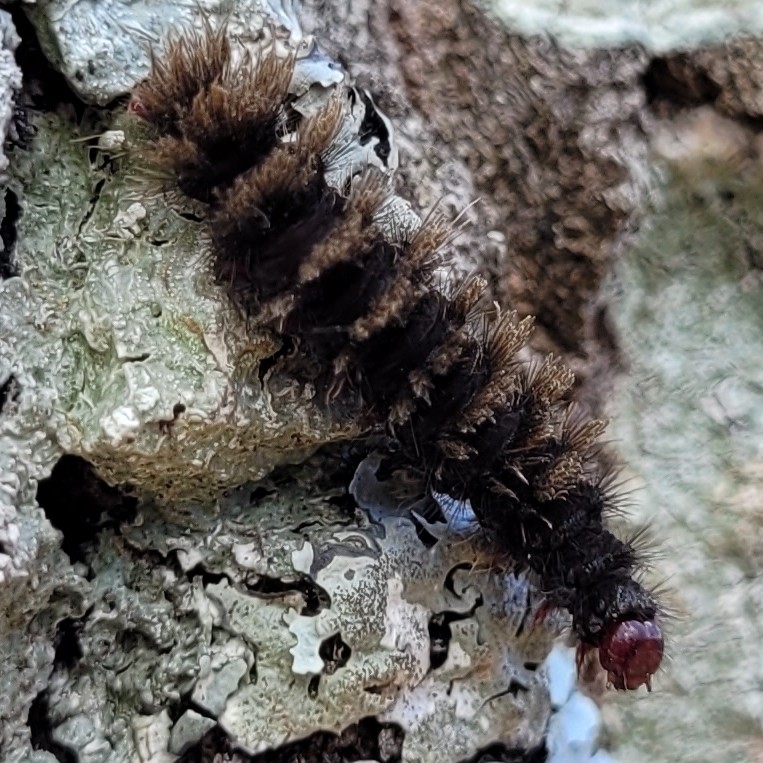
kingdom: Animalia
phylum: Arthropoda
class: Insecta
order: Lepidoptera
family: Erebidae
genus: Amata
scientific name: Amata phegea
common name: Nine-spotted
